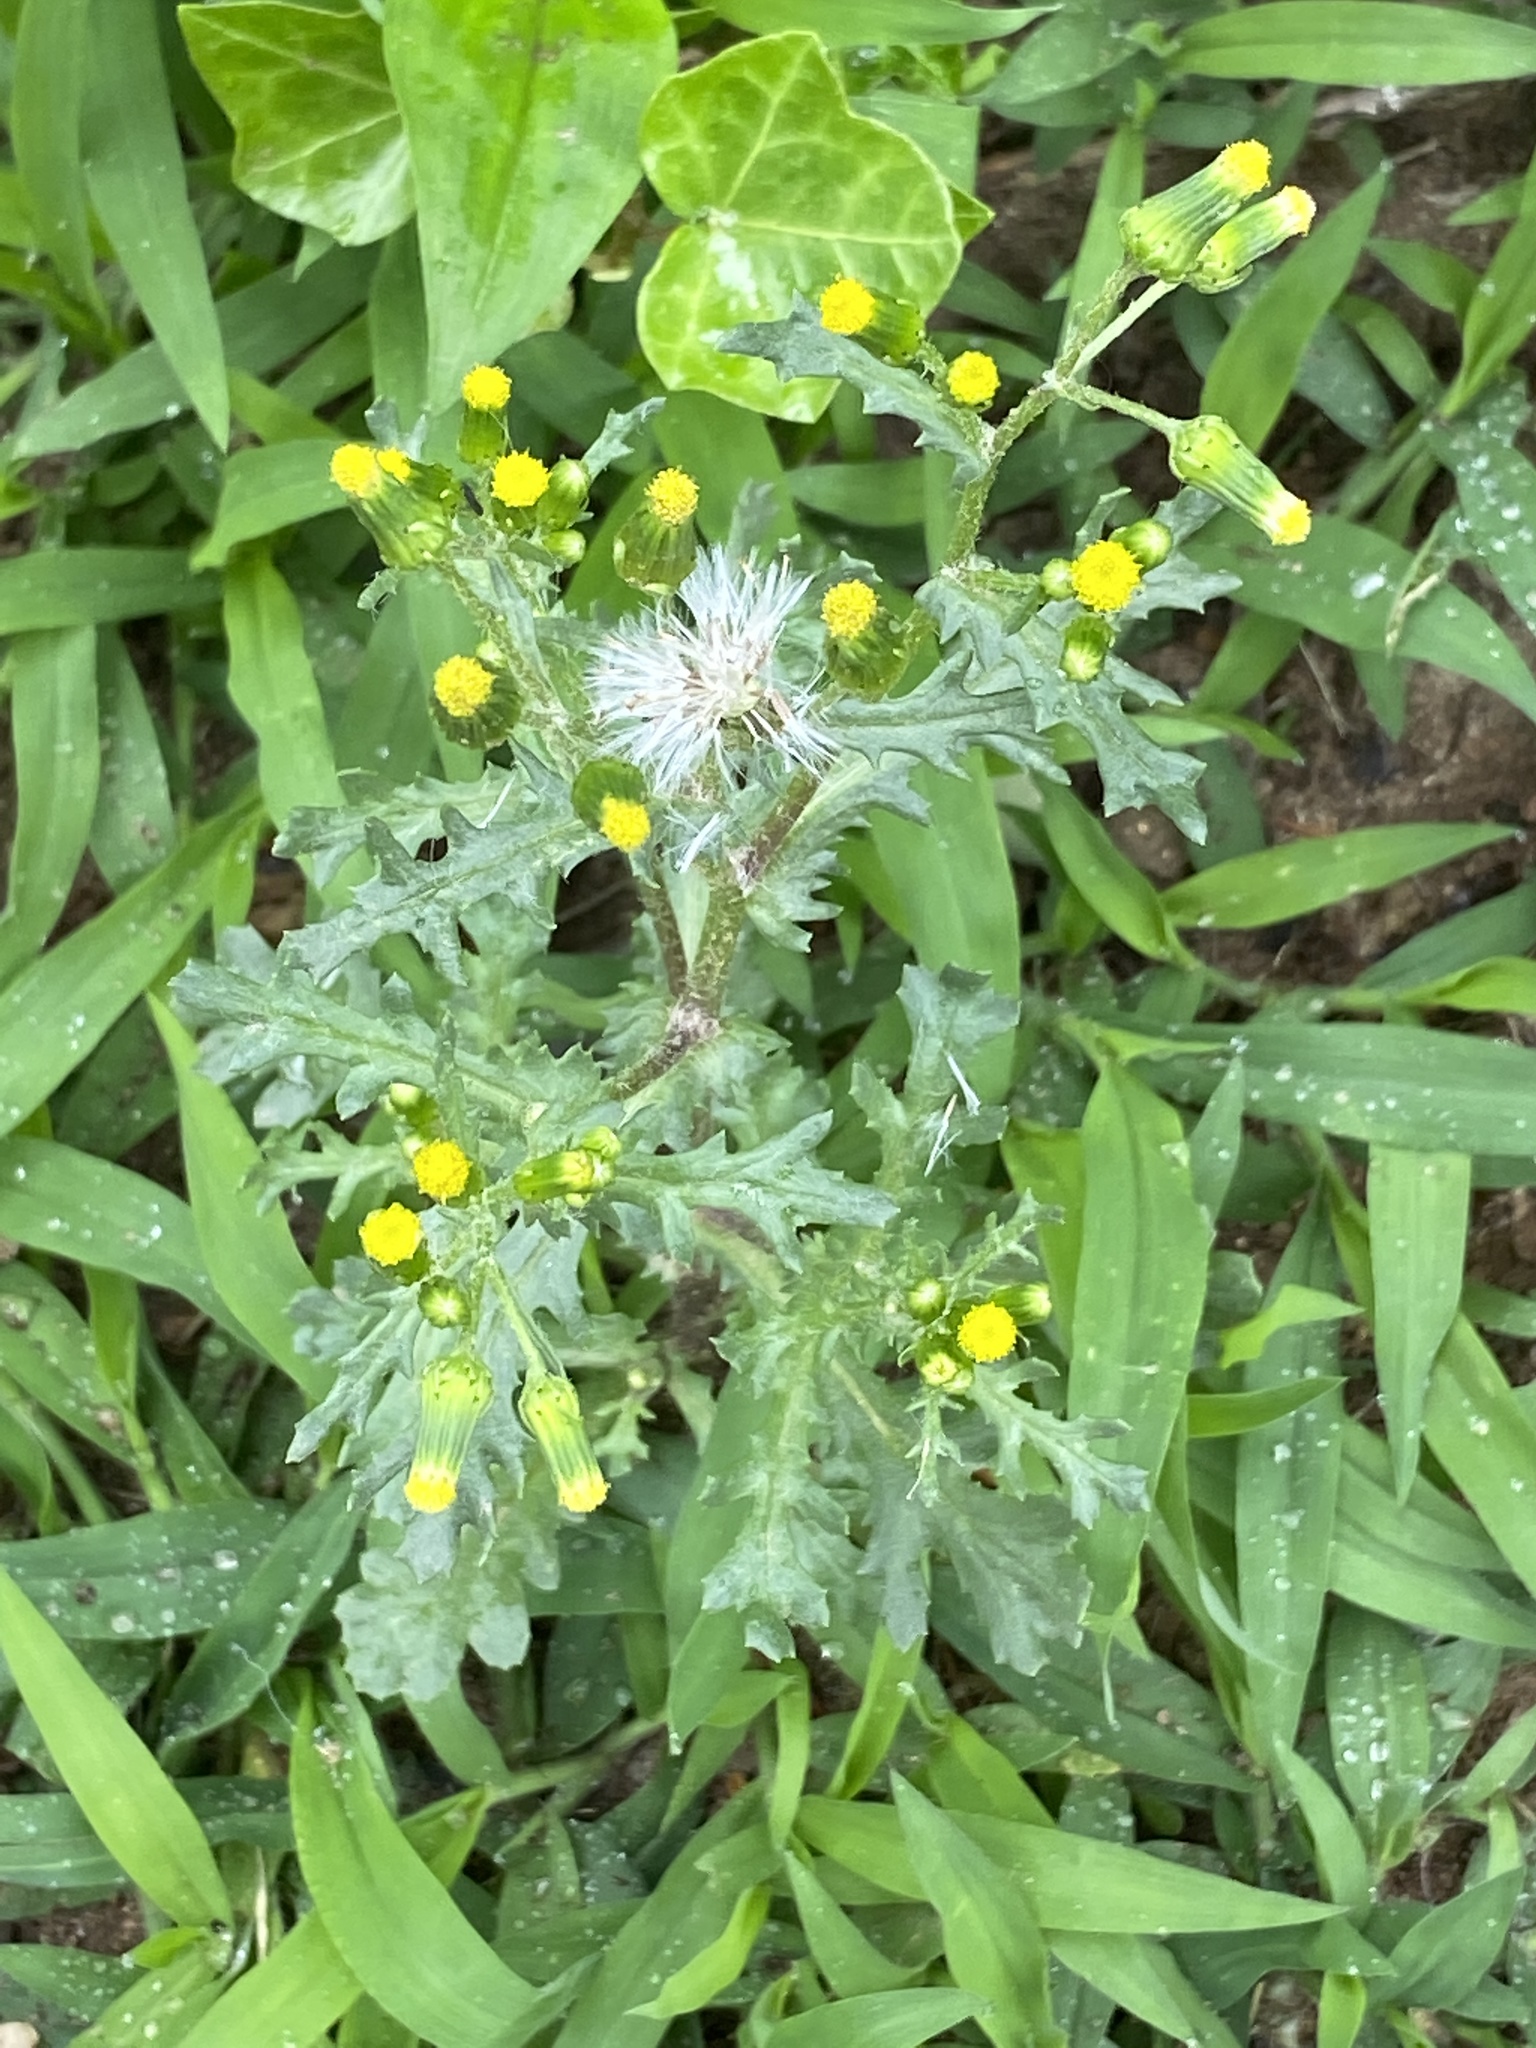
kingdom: Plantae
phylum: Tracheophyta
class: Magnoliopsida
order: Asterales
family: Asteraceae
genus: Senecio
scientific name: Senecio vulgaris
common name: Old-man-in-the-spring
